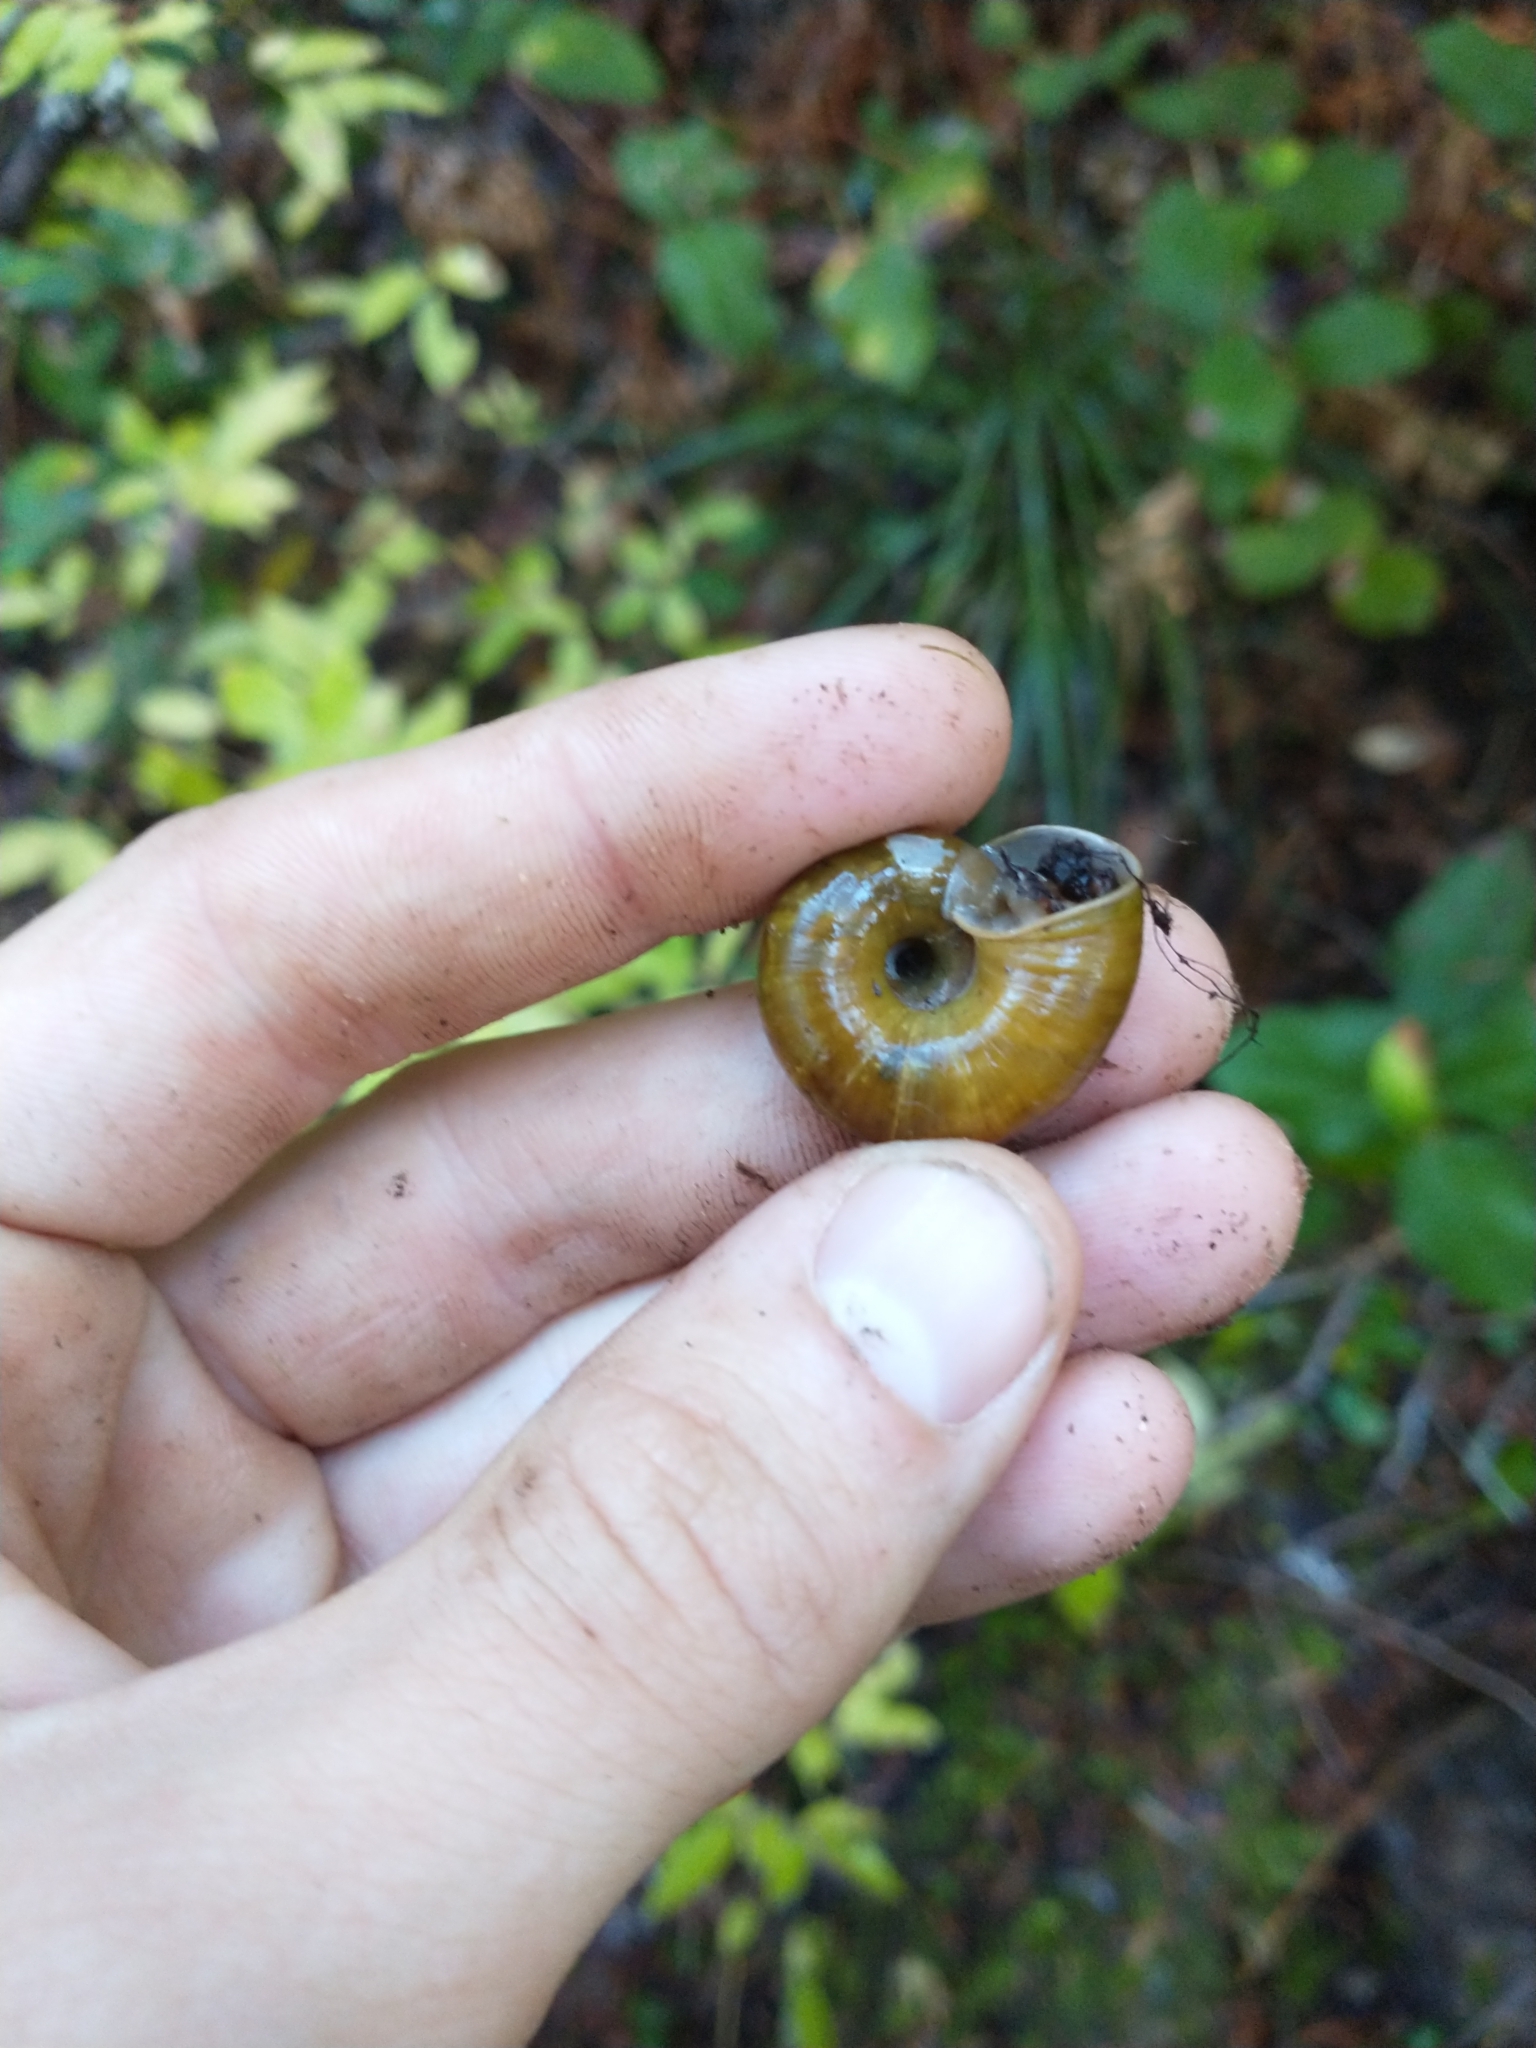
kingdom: Animalia
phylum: Mollusca
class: Gastropoda
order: Stylommatophora
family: Haplotrematidae
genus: Haplotrema
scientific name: Haplotrema vancouverense
